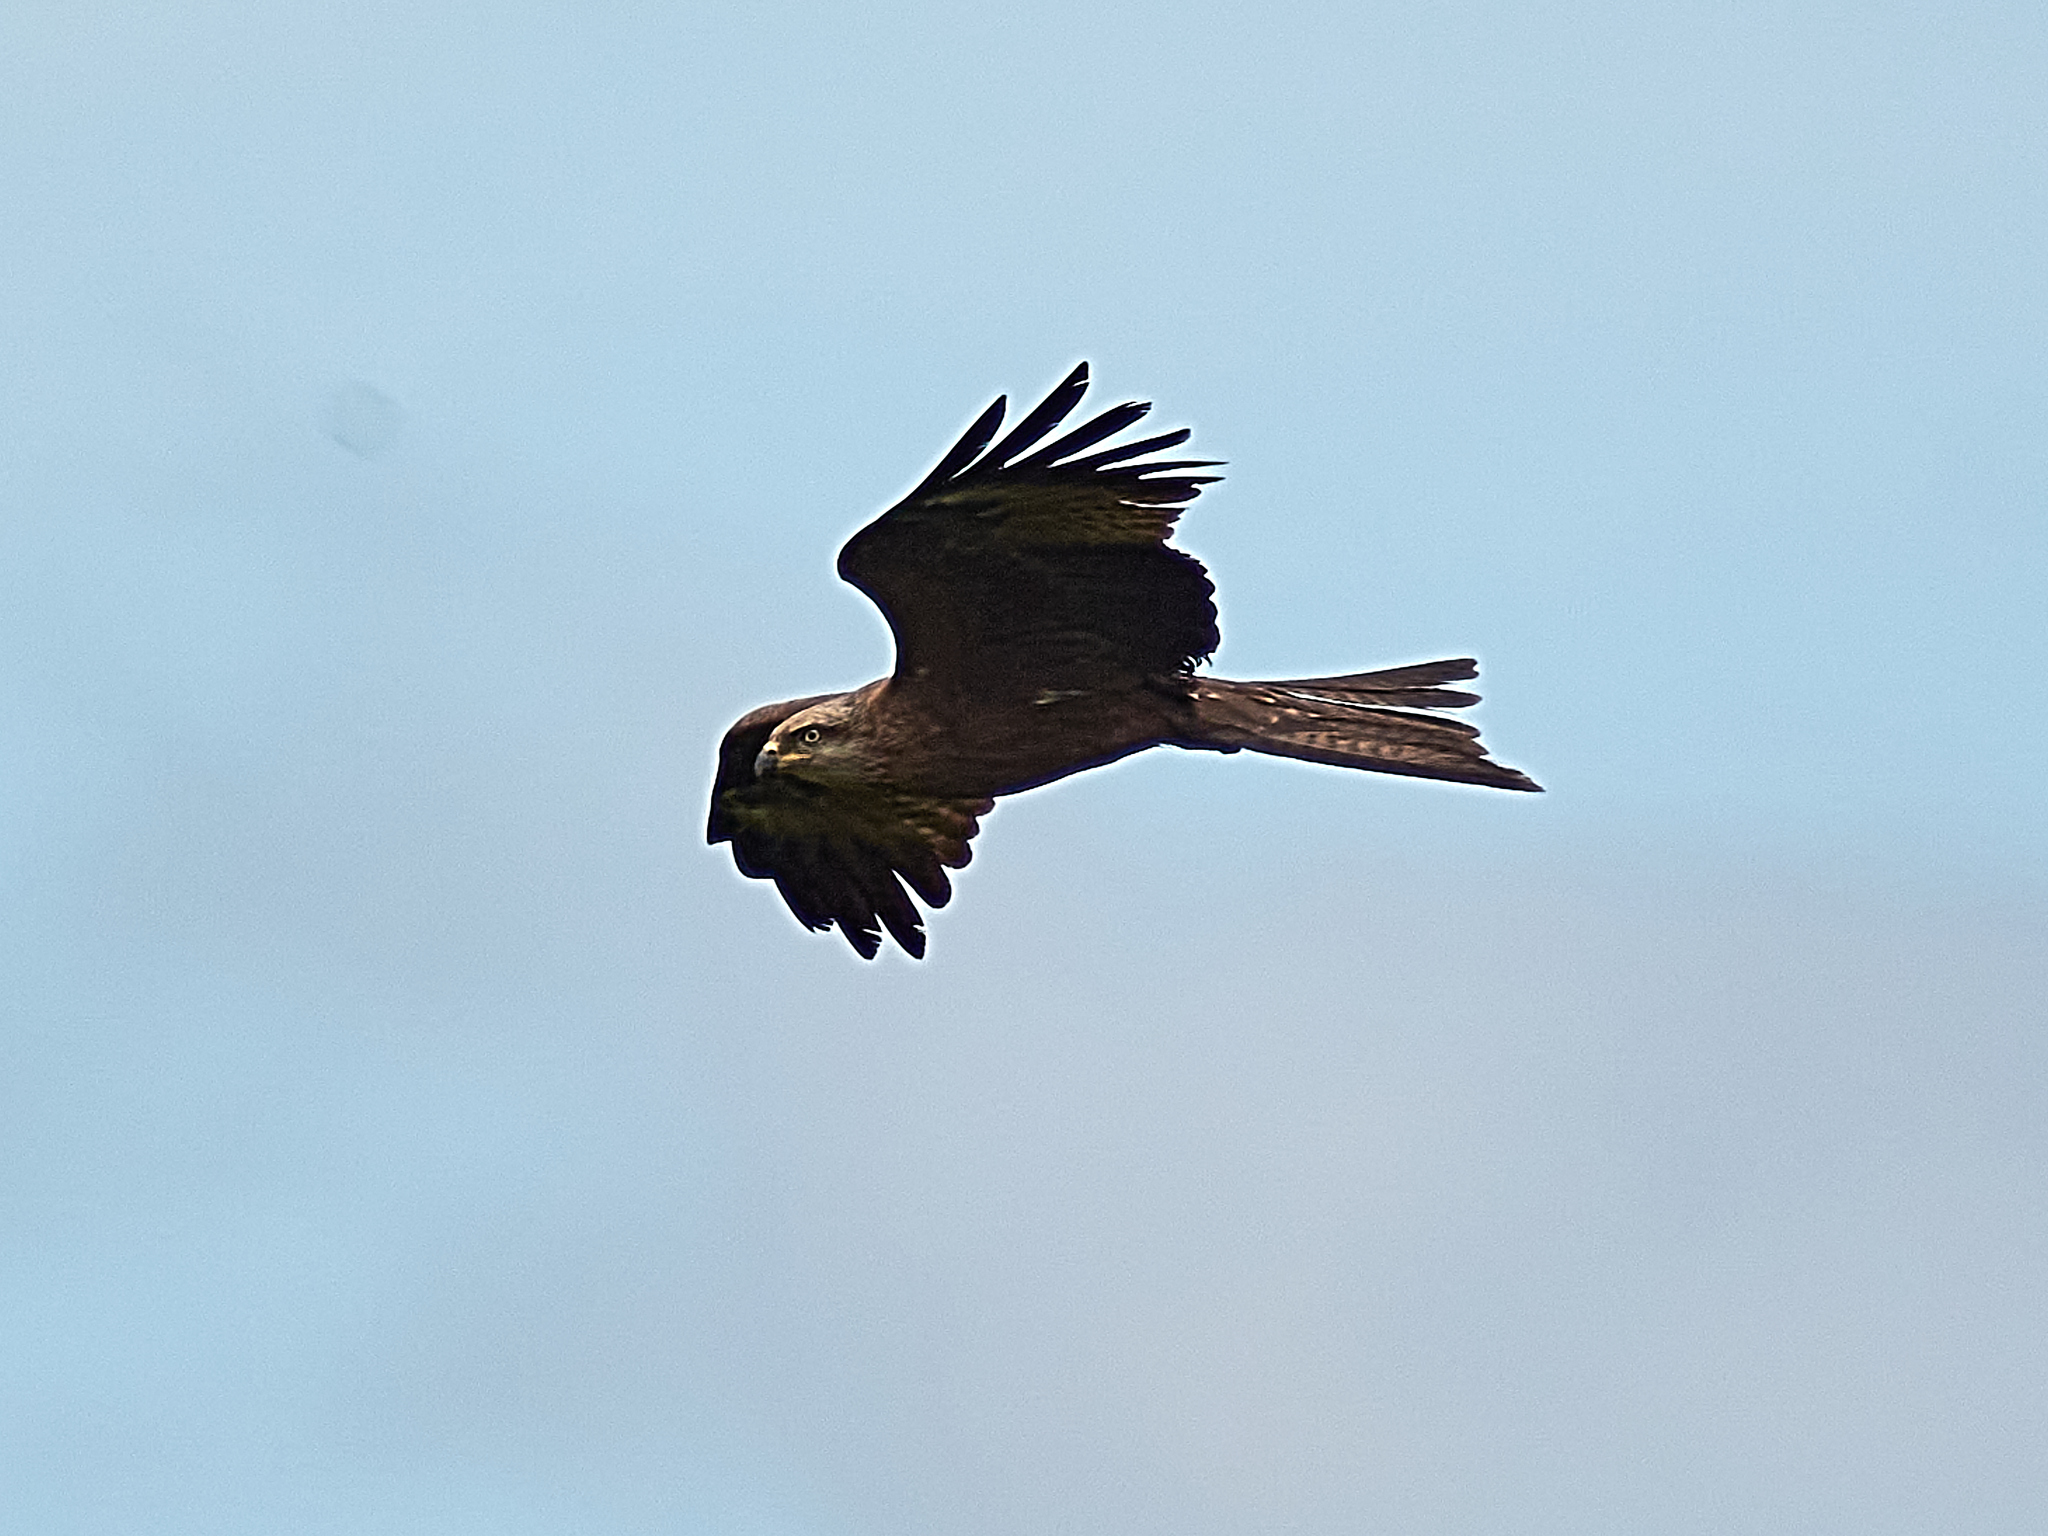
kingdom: Animalia
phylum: Chordata
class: Aves
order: Accipitriformes
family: Accipitridae
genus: Milvus
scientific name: Milvus migrans
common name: Black kite
